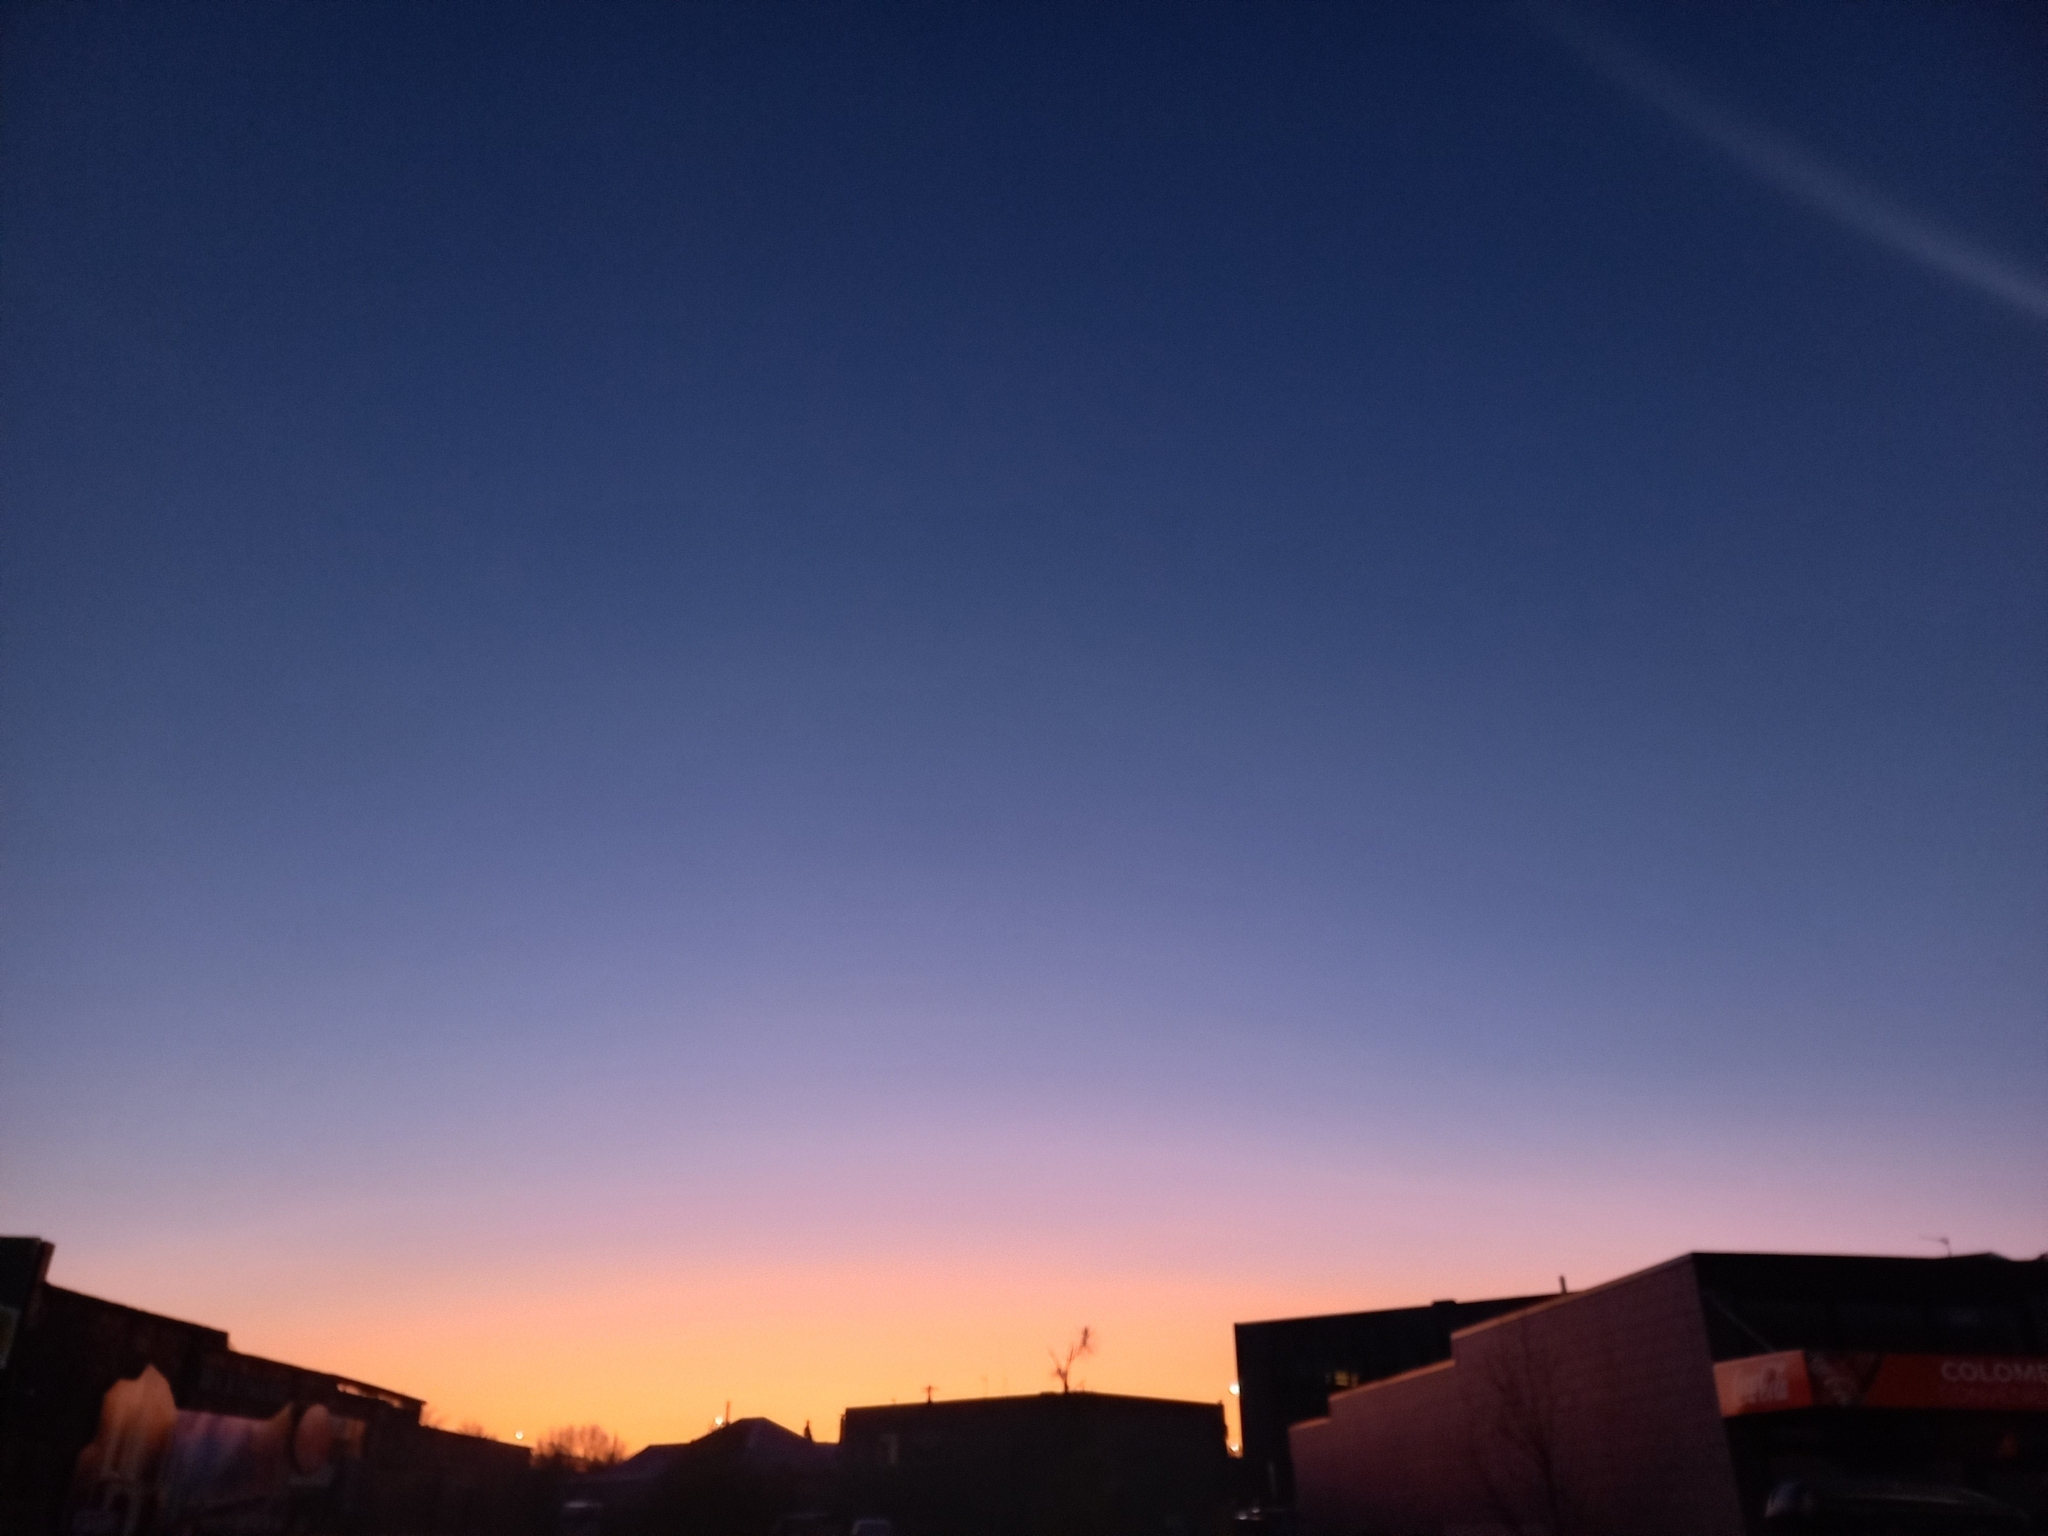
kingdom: Plantae
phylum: Tracheophyta
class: Liliopsida
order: Asparagales
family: Asparagaceae
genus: Cordyline
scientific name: Cordyline australis
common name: Cabbage-palm
